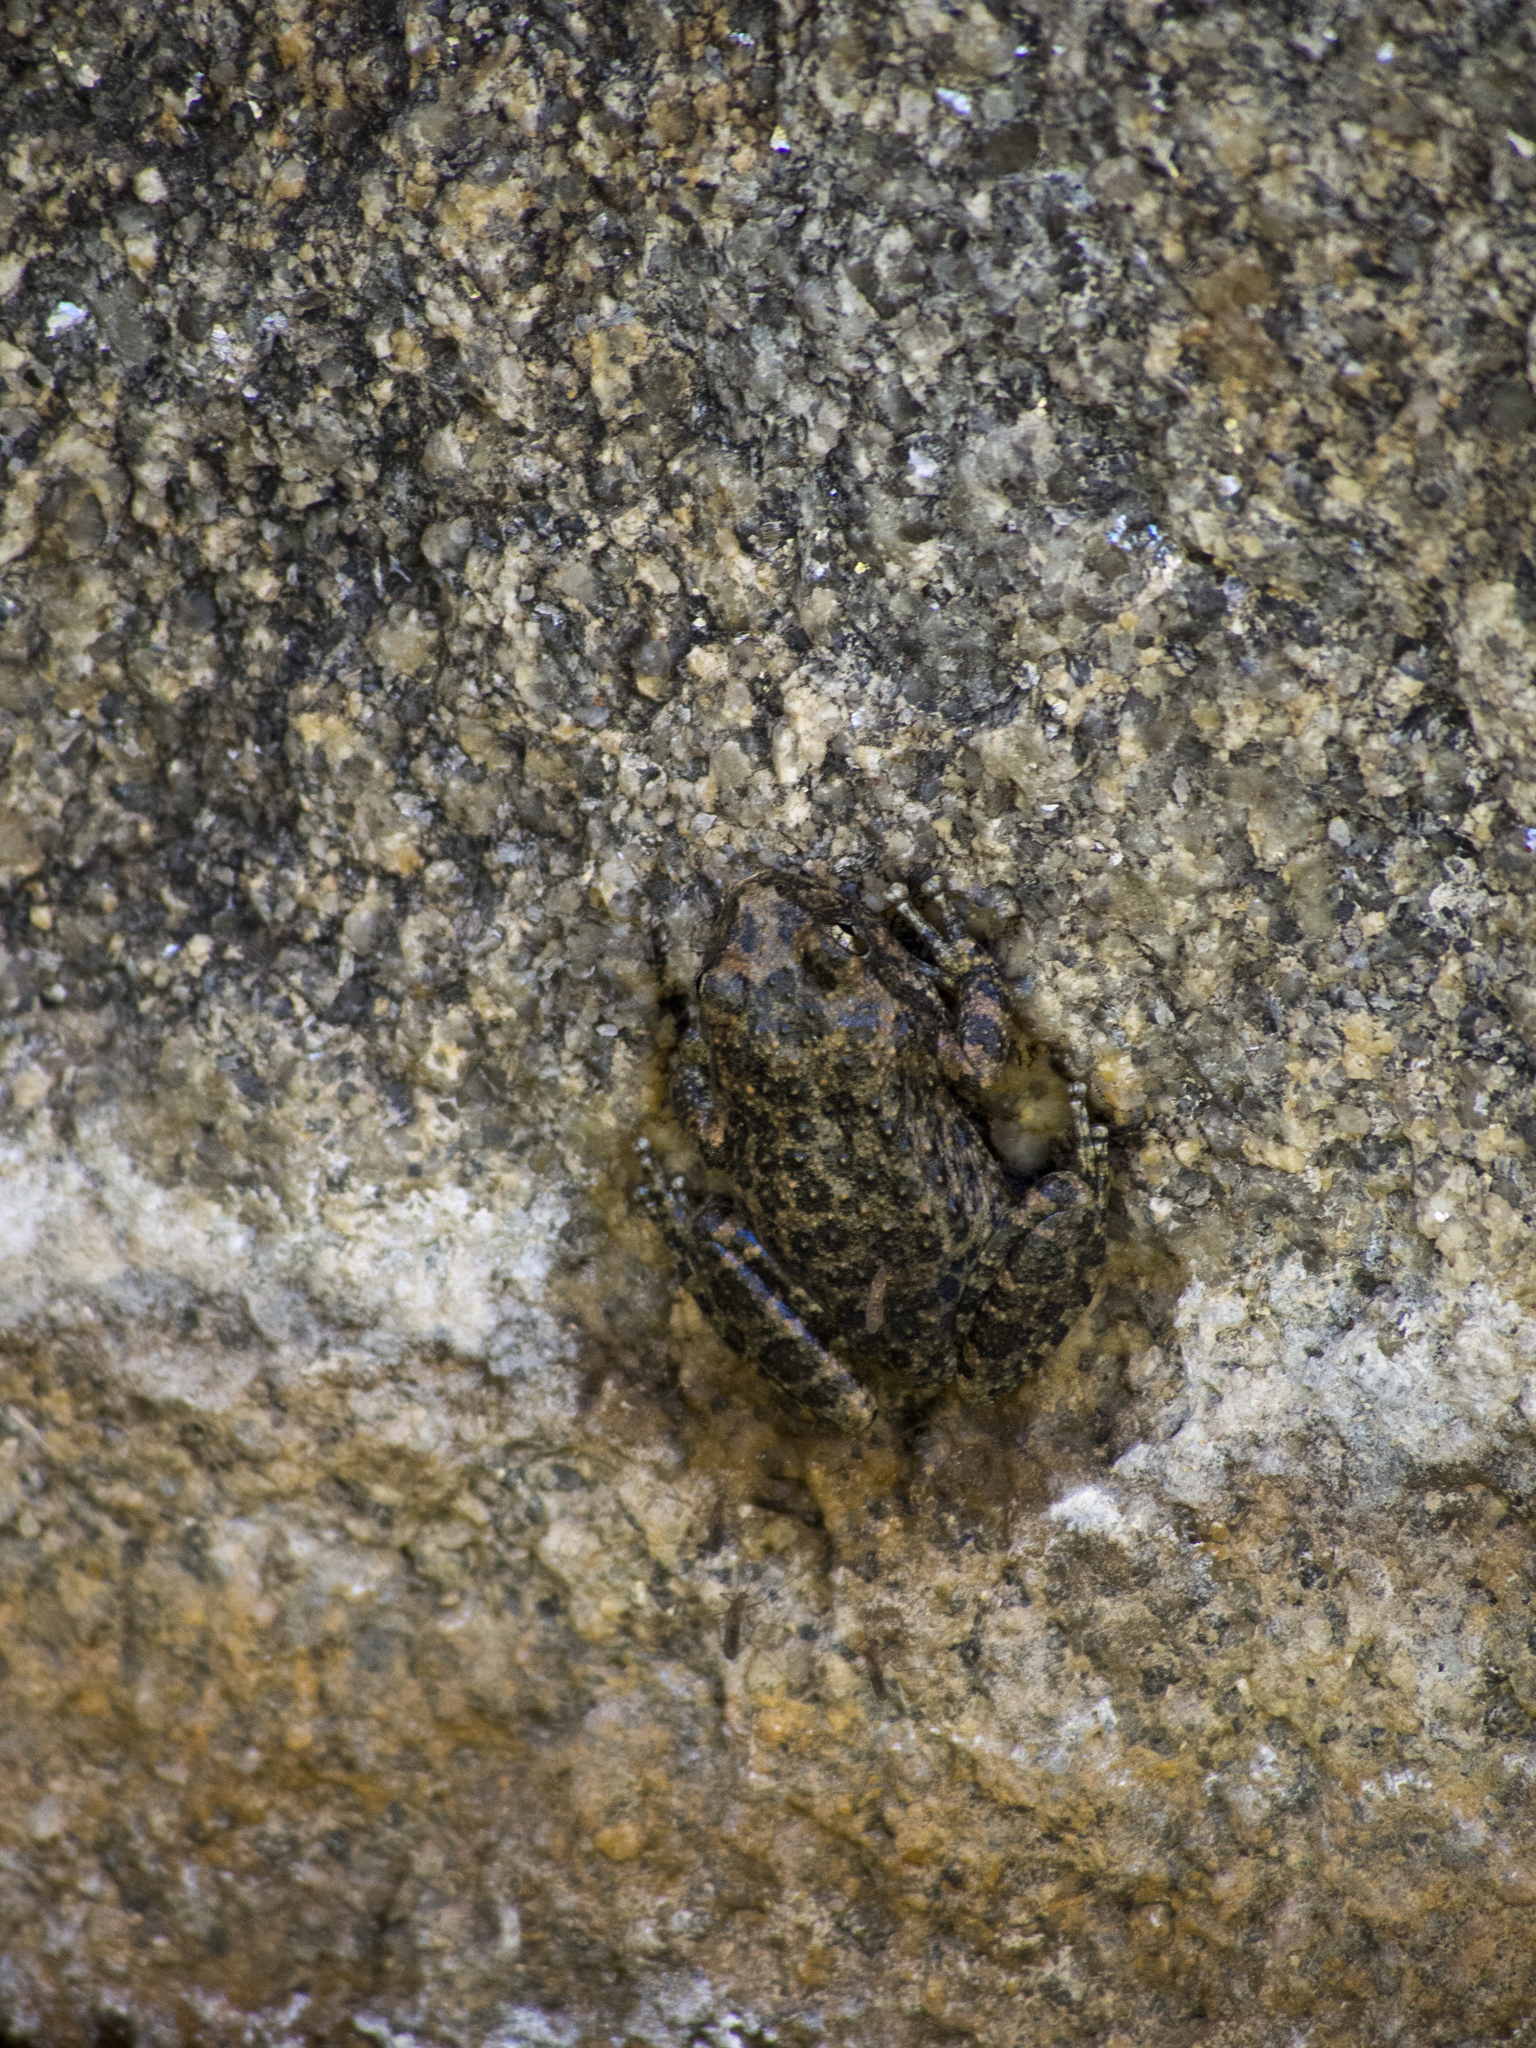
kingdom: Animalia
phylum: Chordata
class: Amphibia
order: Anura
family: Hylidae
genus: Pseudacris
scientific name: Pseudacris cadaverina
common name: California chorus frog
